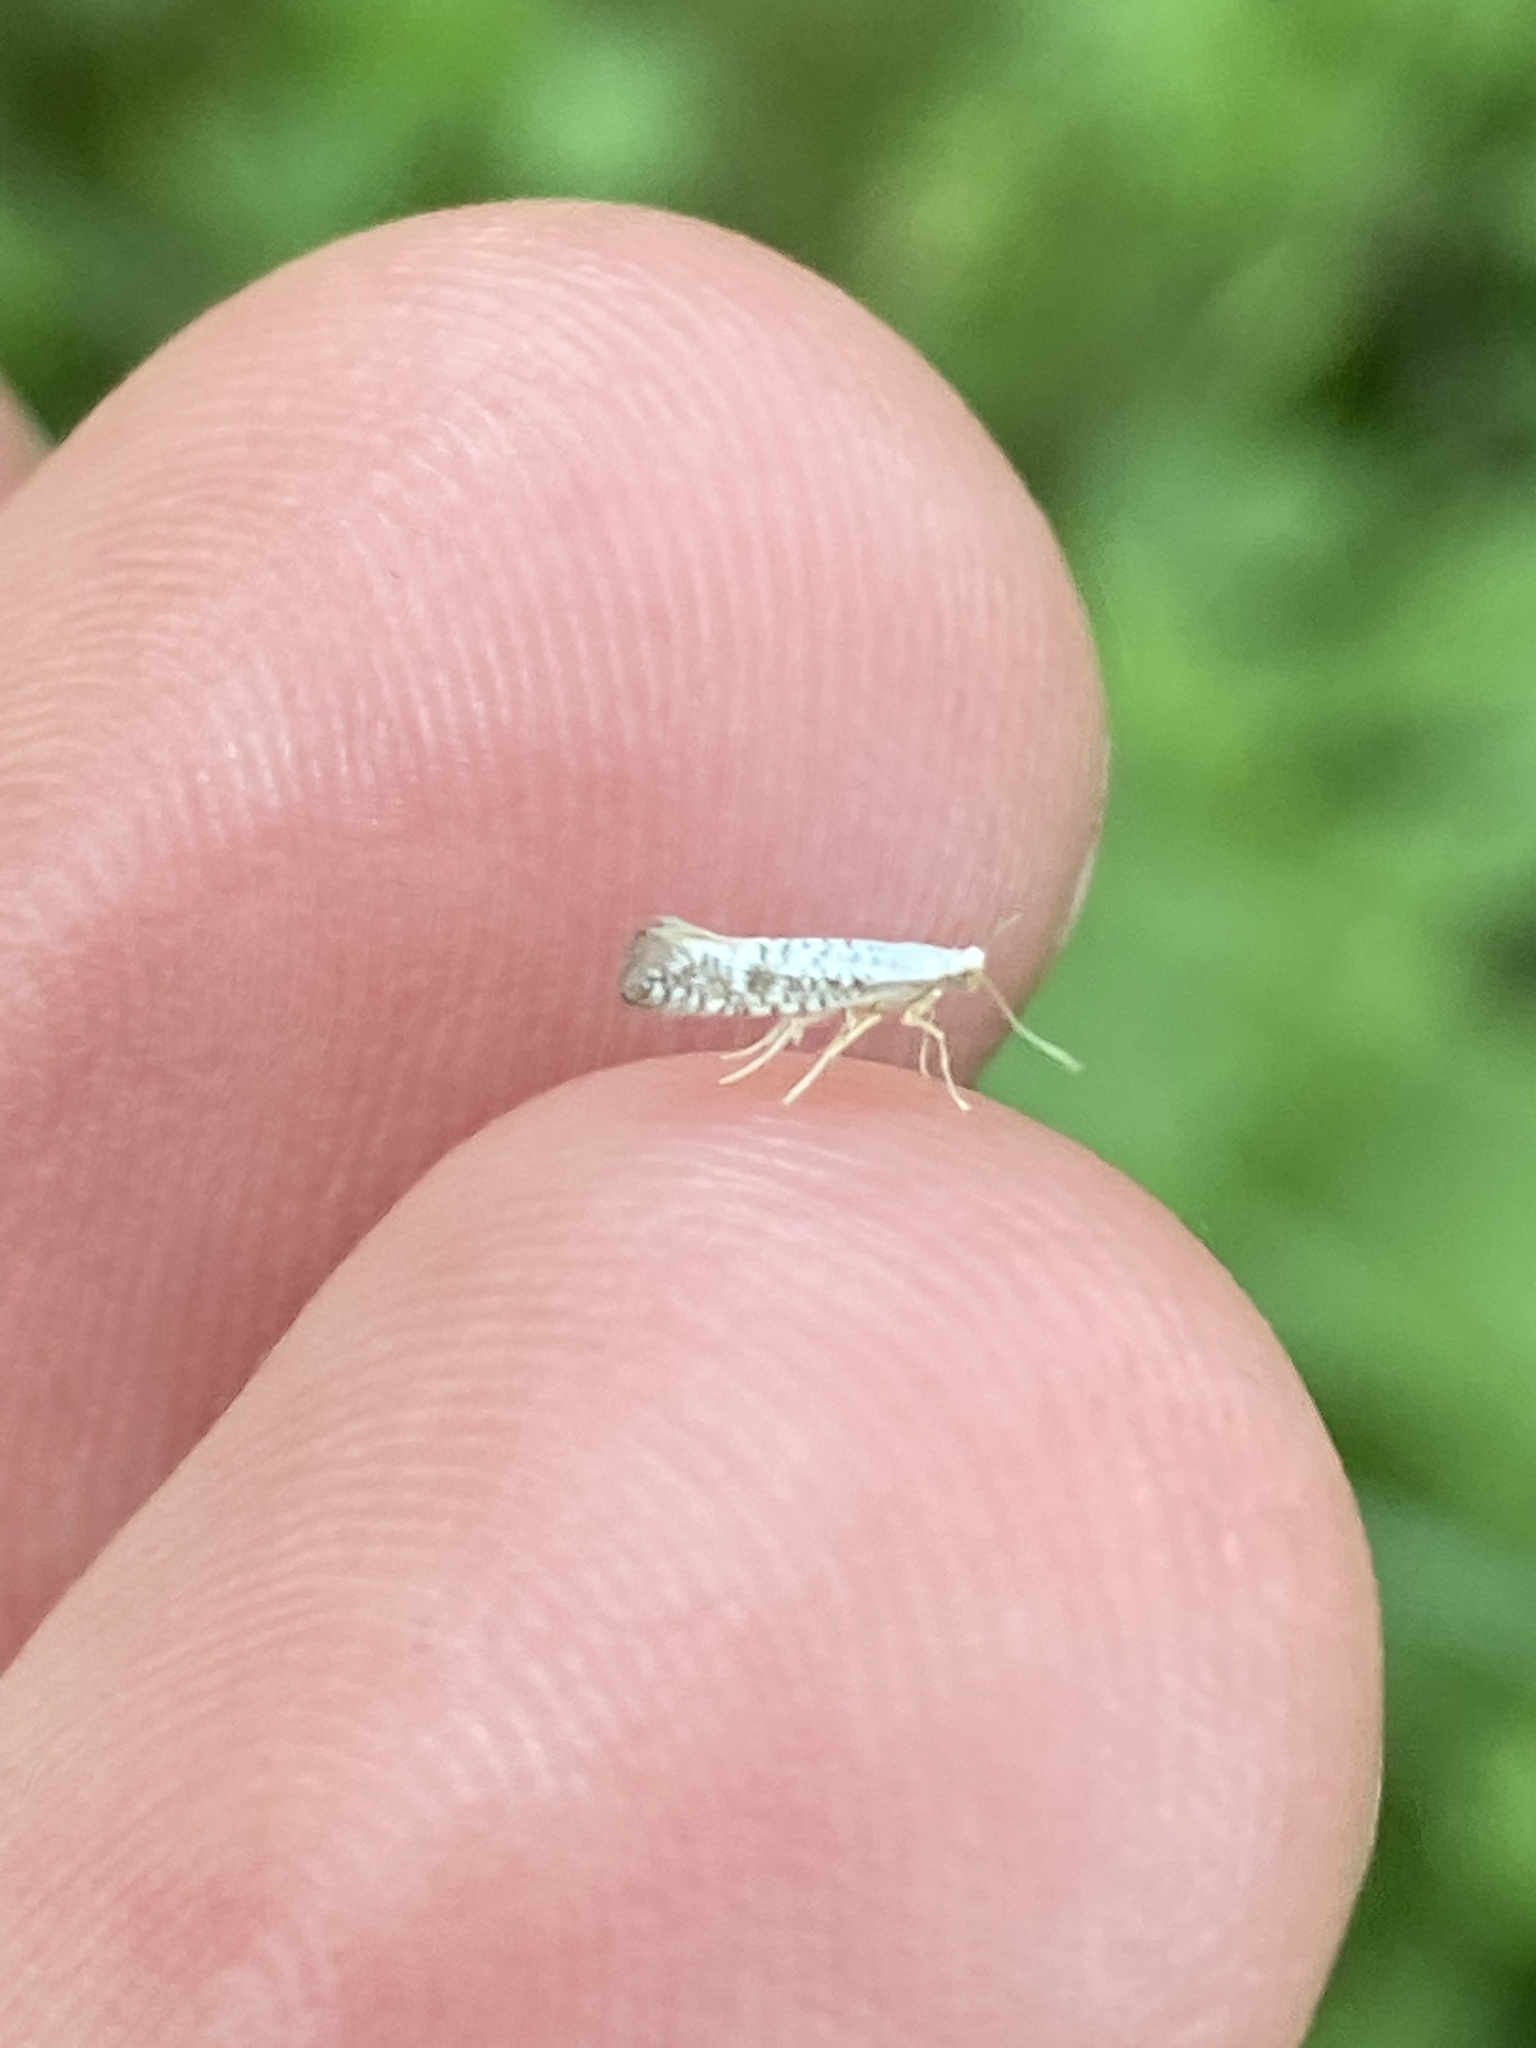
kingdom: Animalia
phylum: Arthropoda
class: Insecta
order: Lepidoptera
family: Argyresthiidae
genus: Argyresthia
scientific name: Argyresthia retinella
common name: Netted argent
